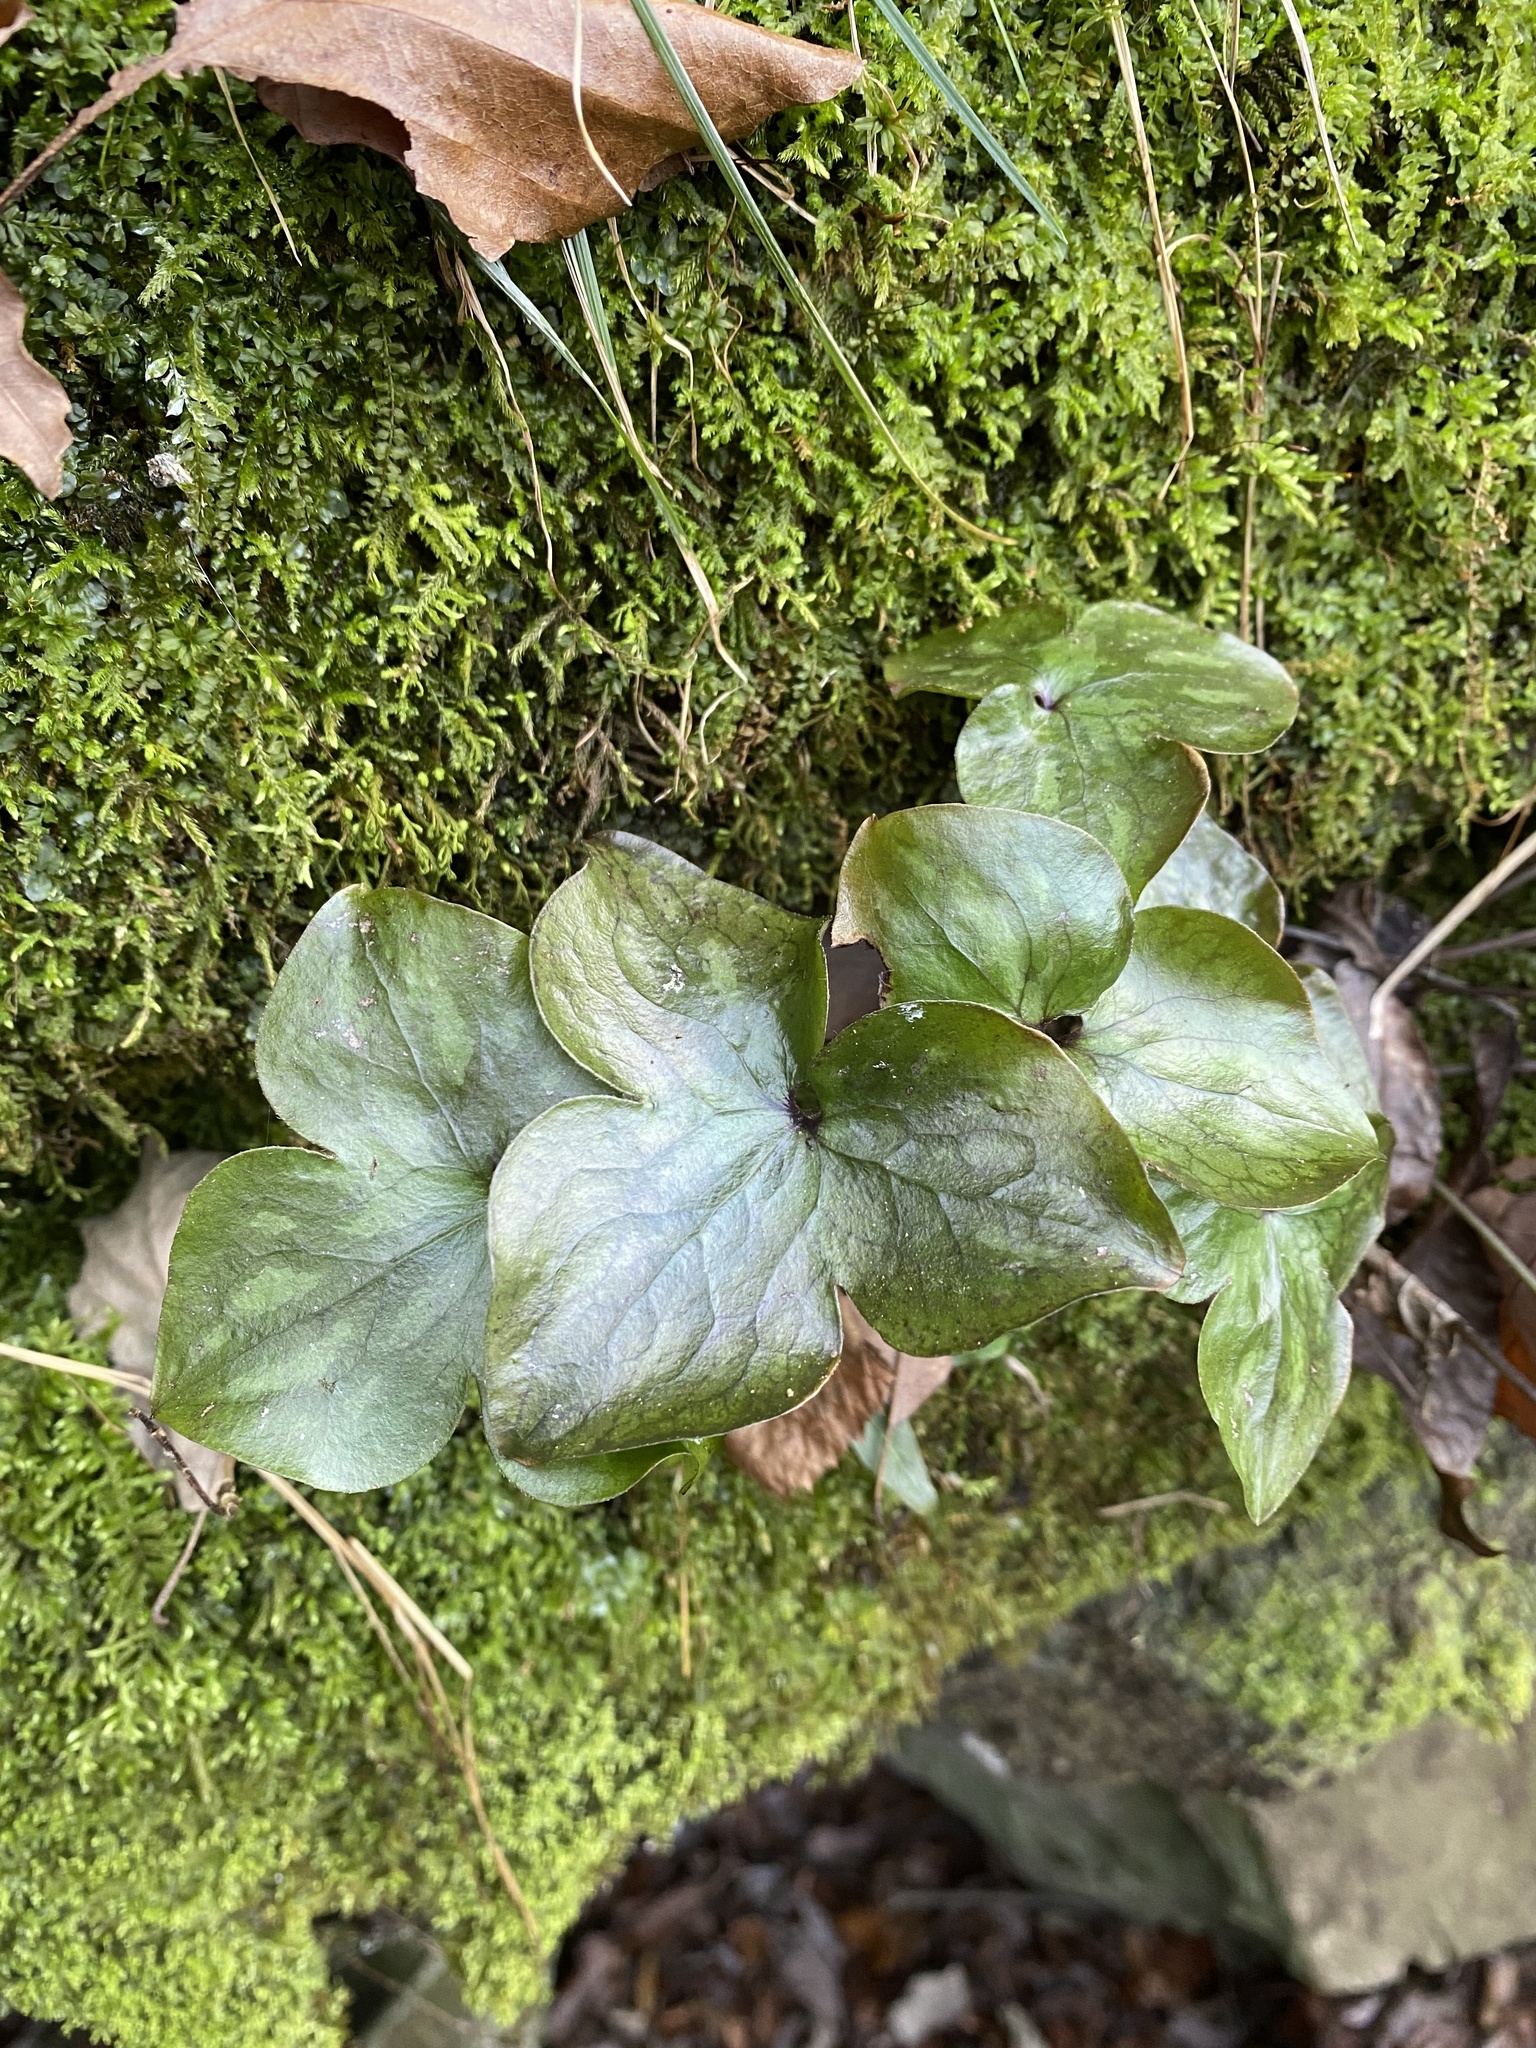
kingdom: Plantae
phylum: Tracheophyta
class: Magnoliopsida
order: Ranunculales
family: Ranunculaceae
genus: Hepatica
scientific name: Hepatica acutiloba
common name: Sharp-lobed hepatica
